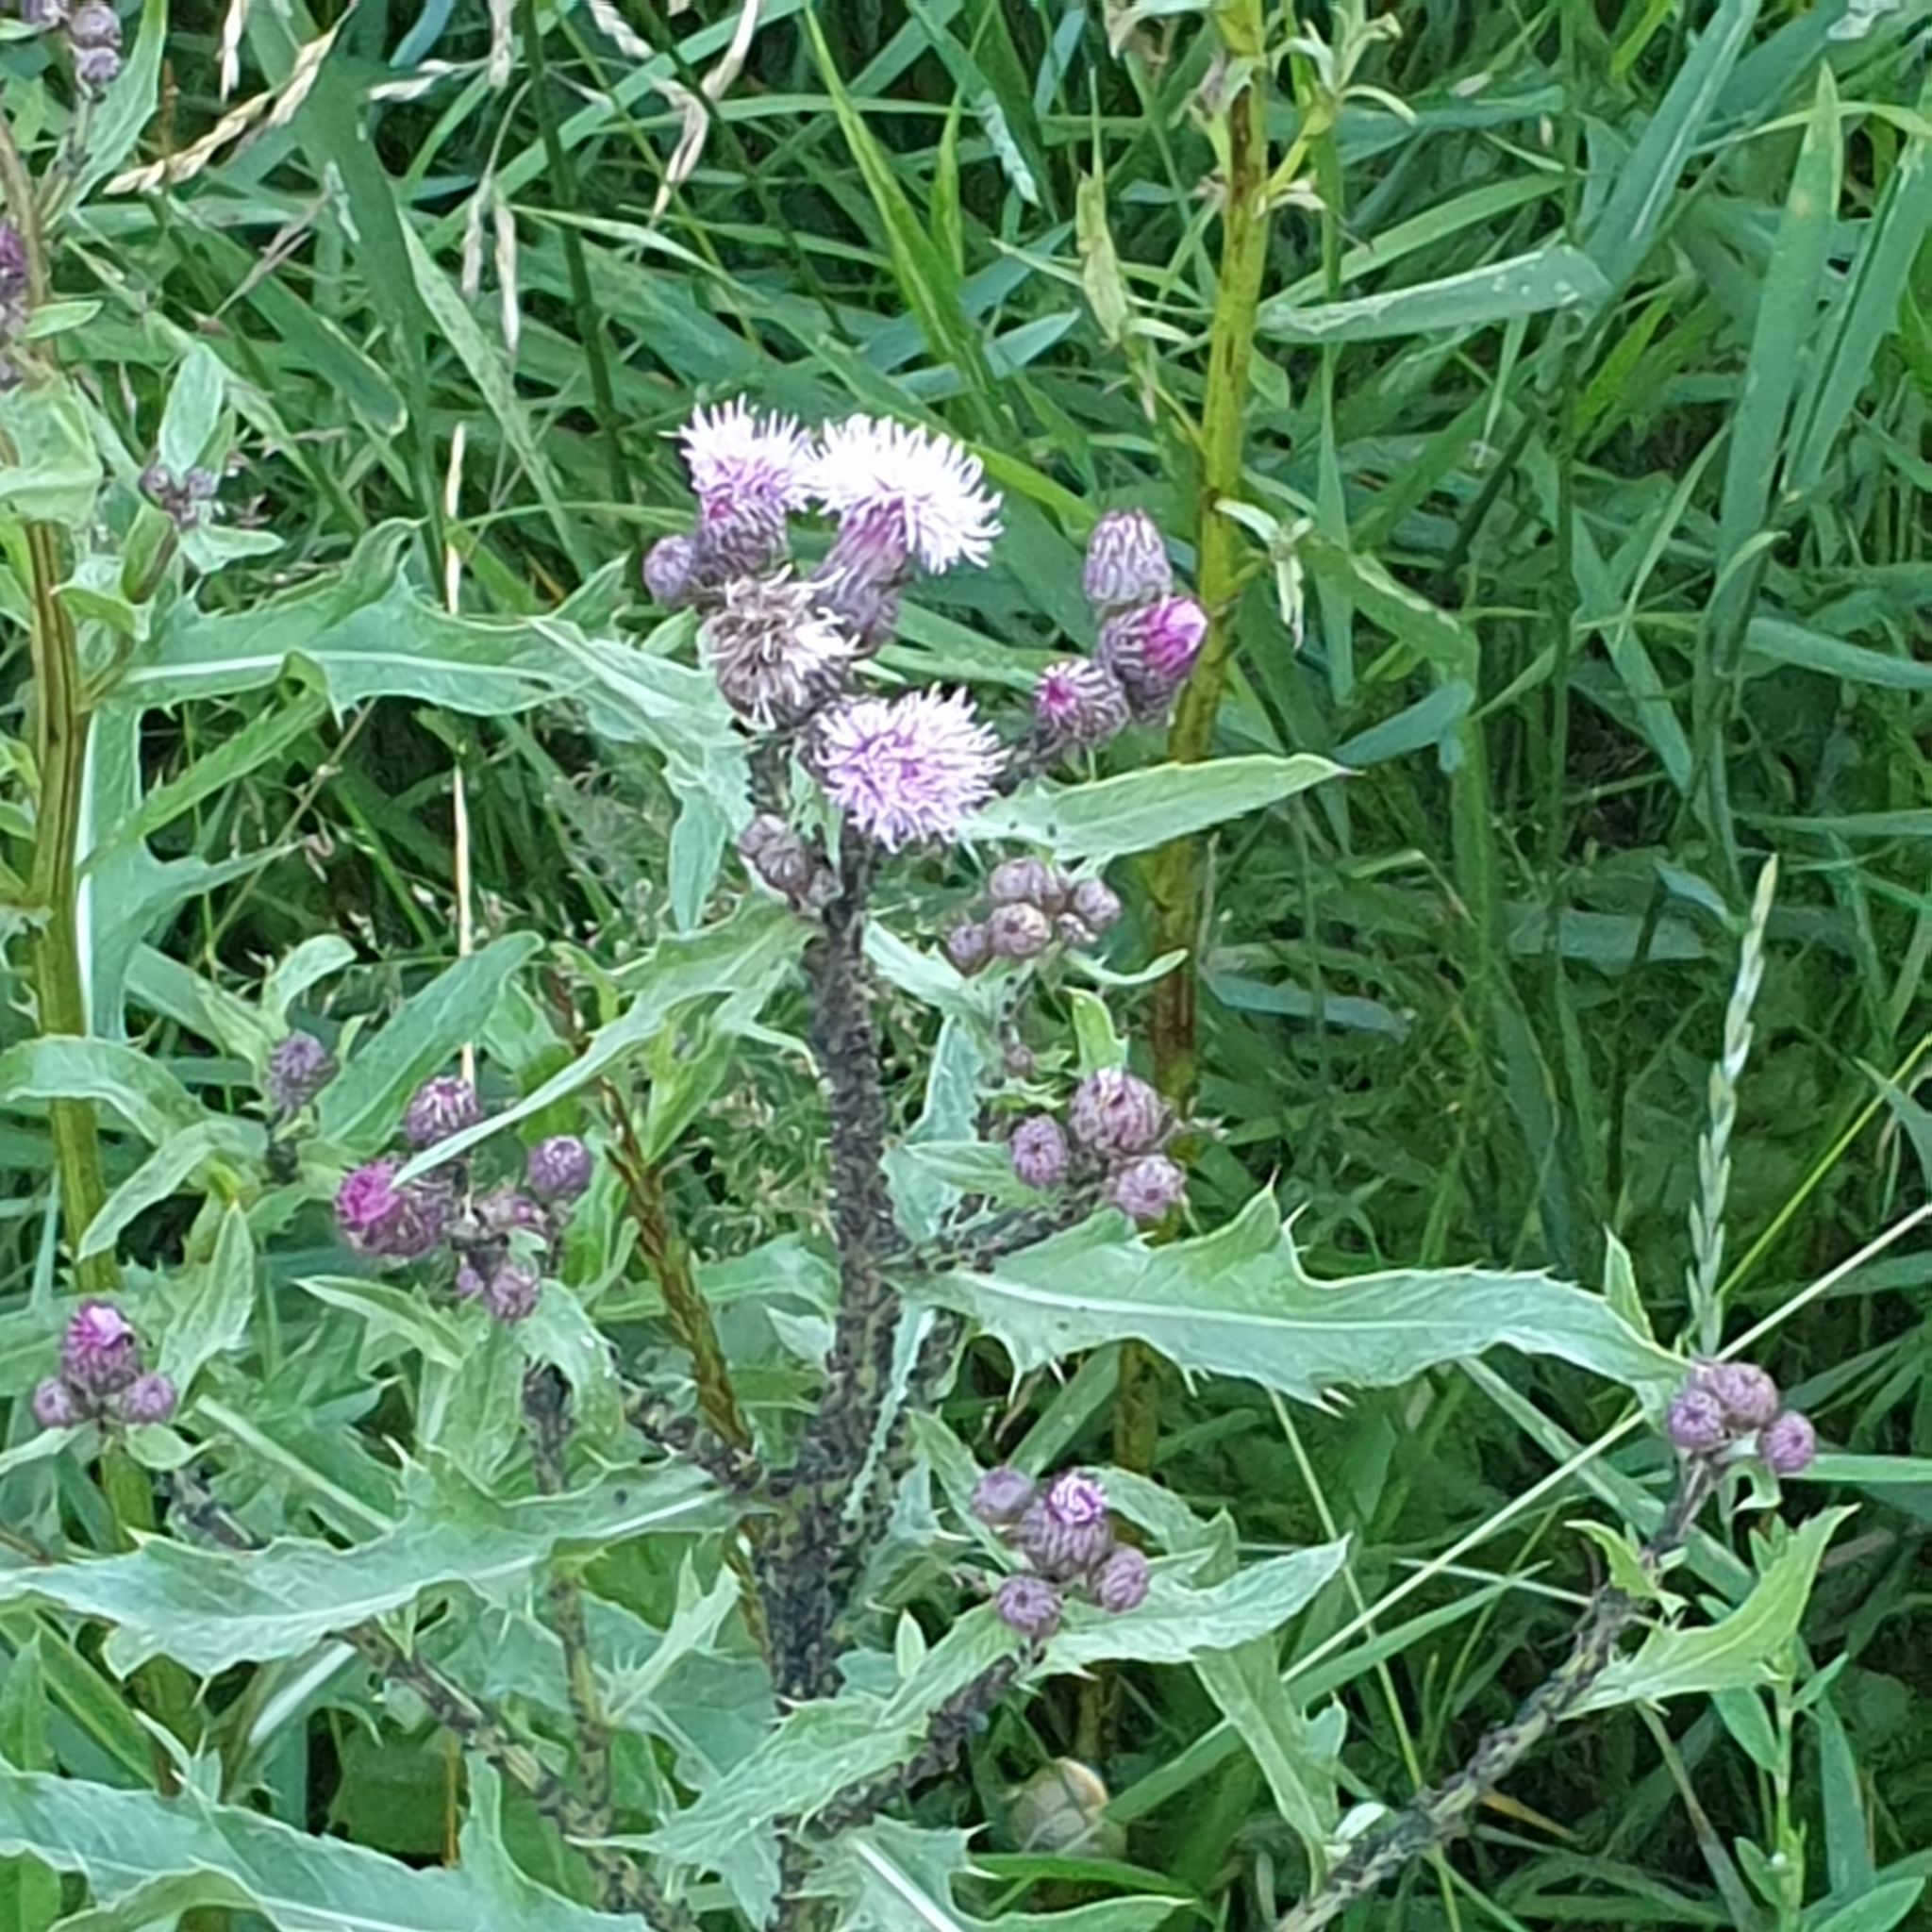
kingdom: Plantae
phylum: Tracheophyta
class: Magnoliopsida
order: Asterales
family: Asteraceae
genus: Cirsium
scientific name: Cirsium arvense
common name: Creeping thistle
